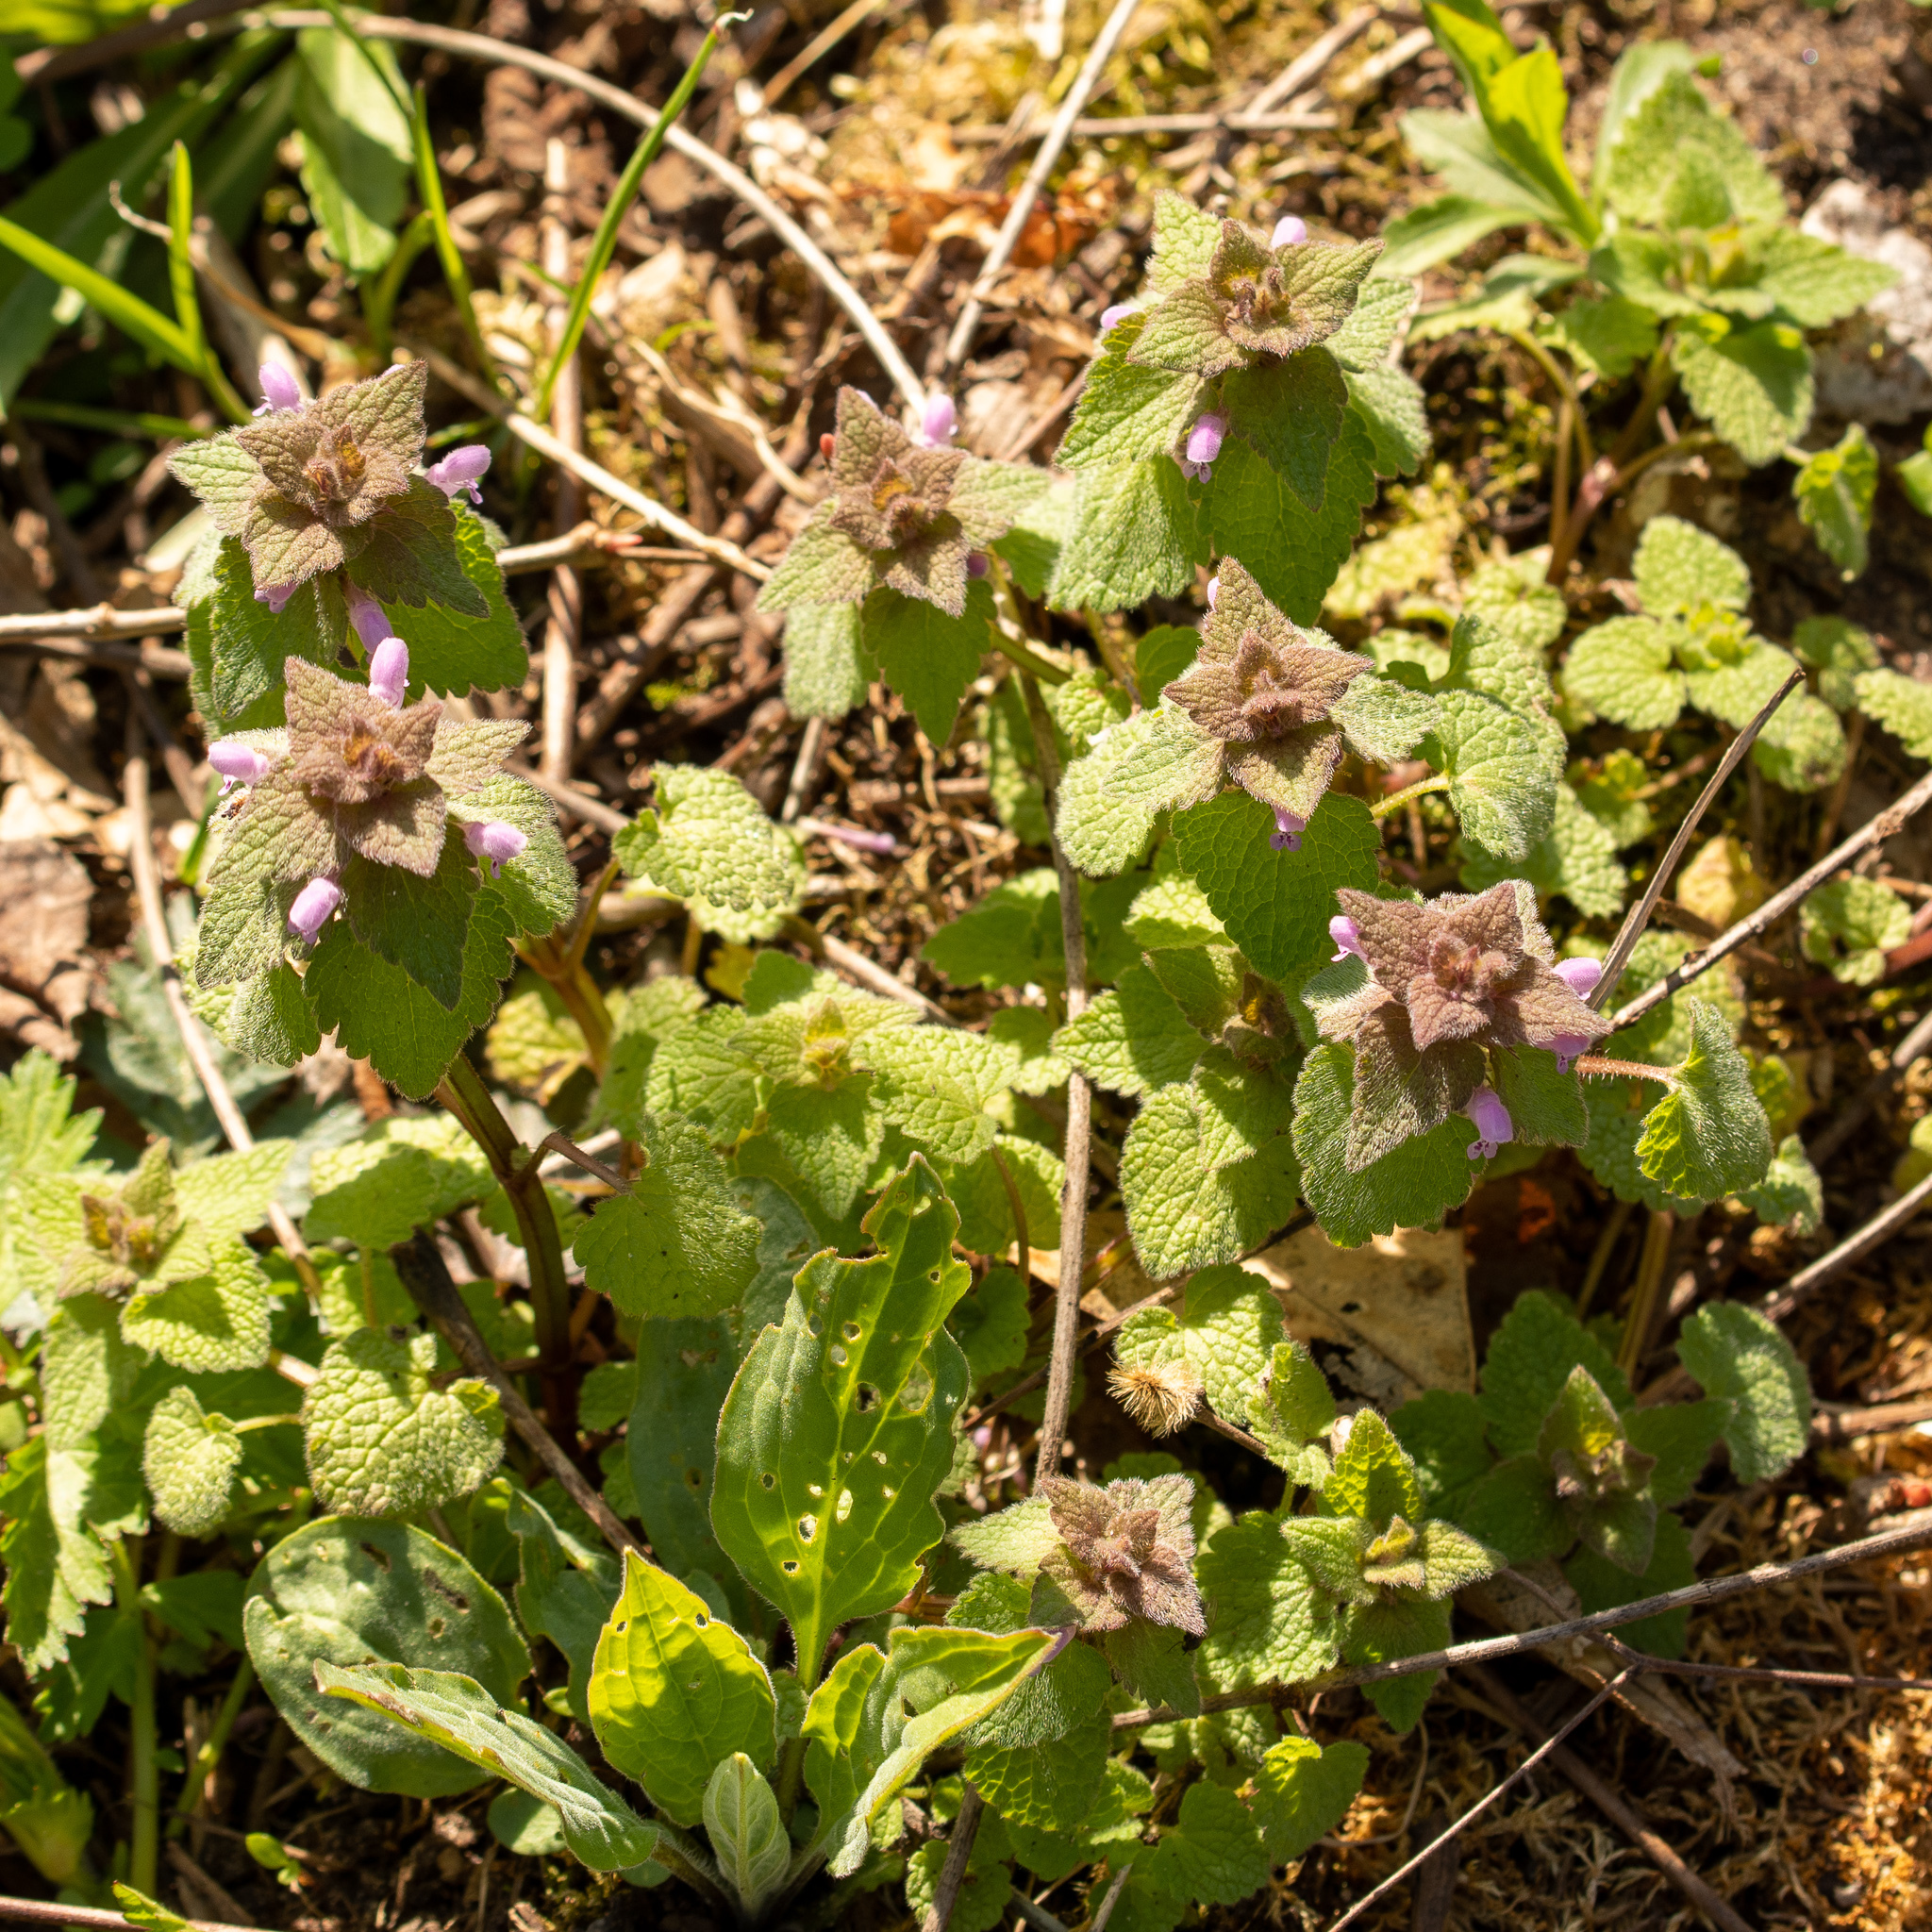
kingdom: Plantae
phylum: Tracheophyta
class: Magnoliopsida
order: Lamiales
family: Lamiaceae
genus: Lamium
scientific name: Lamium purpureum
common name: Red dead-nettle
